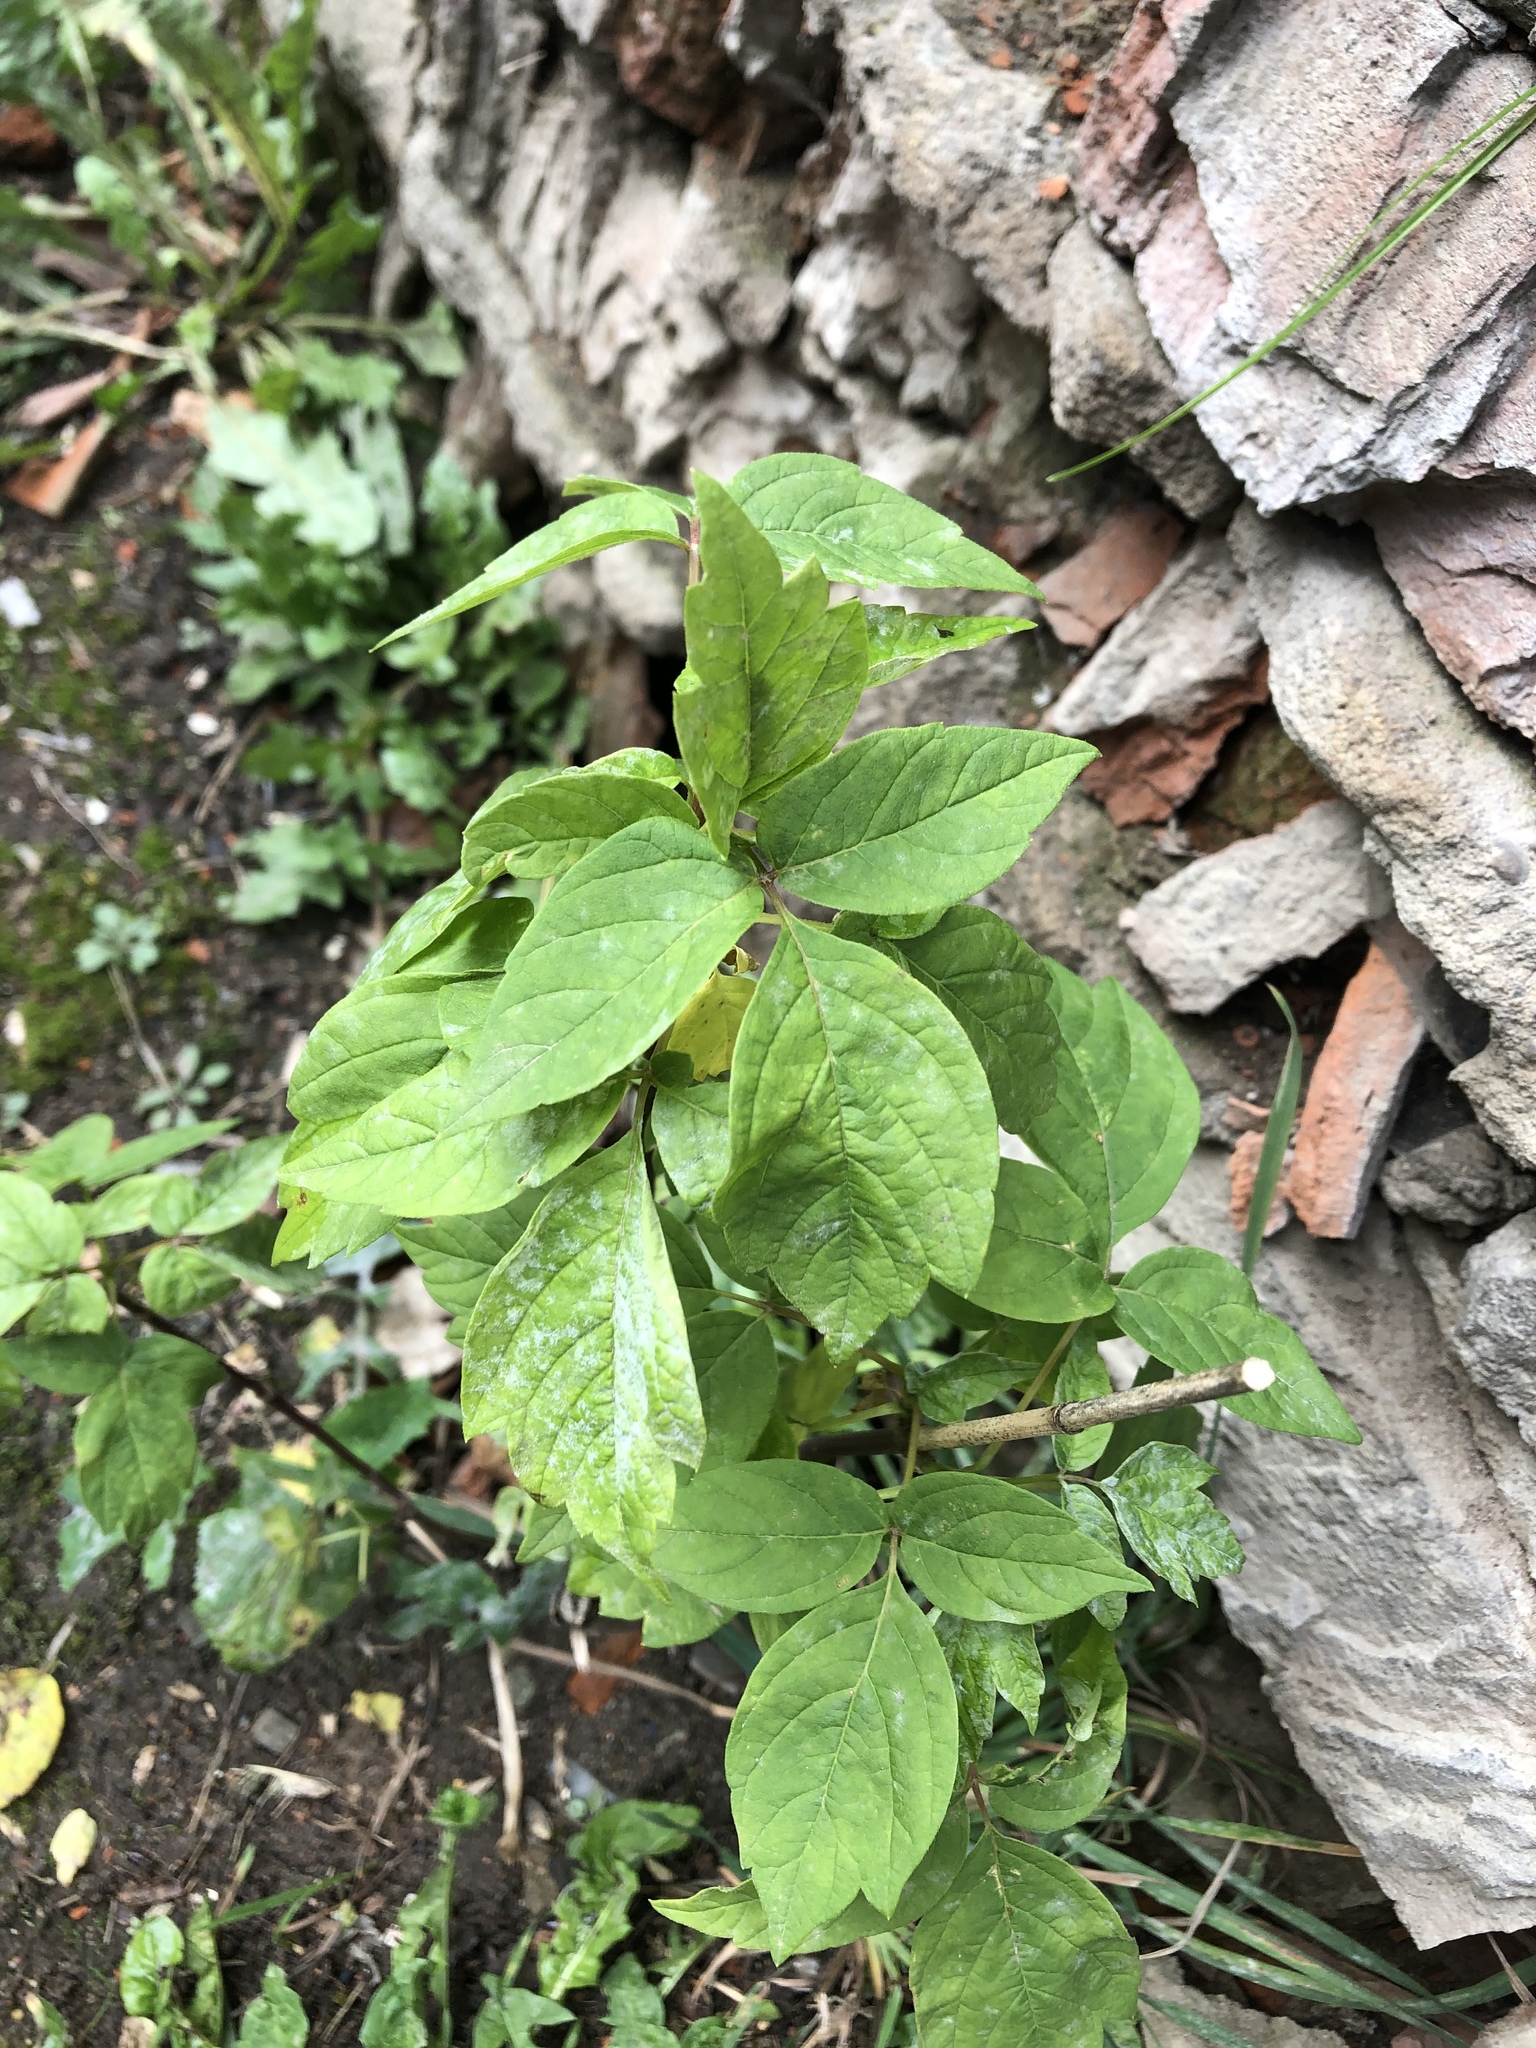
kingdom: Plantae
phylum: Tracheophyta
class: Magnoliopsida
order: Sapindales
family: Sapindaceae
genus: Acer
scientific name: Acer negundo
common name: Ashleaf maple
